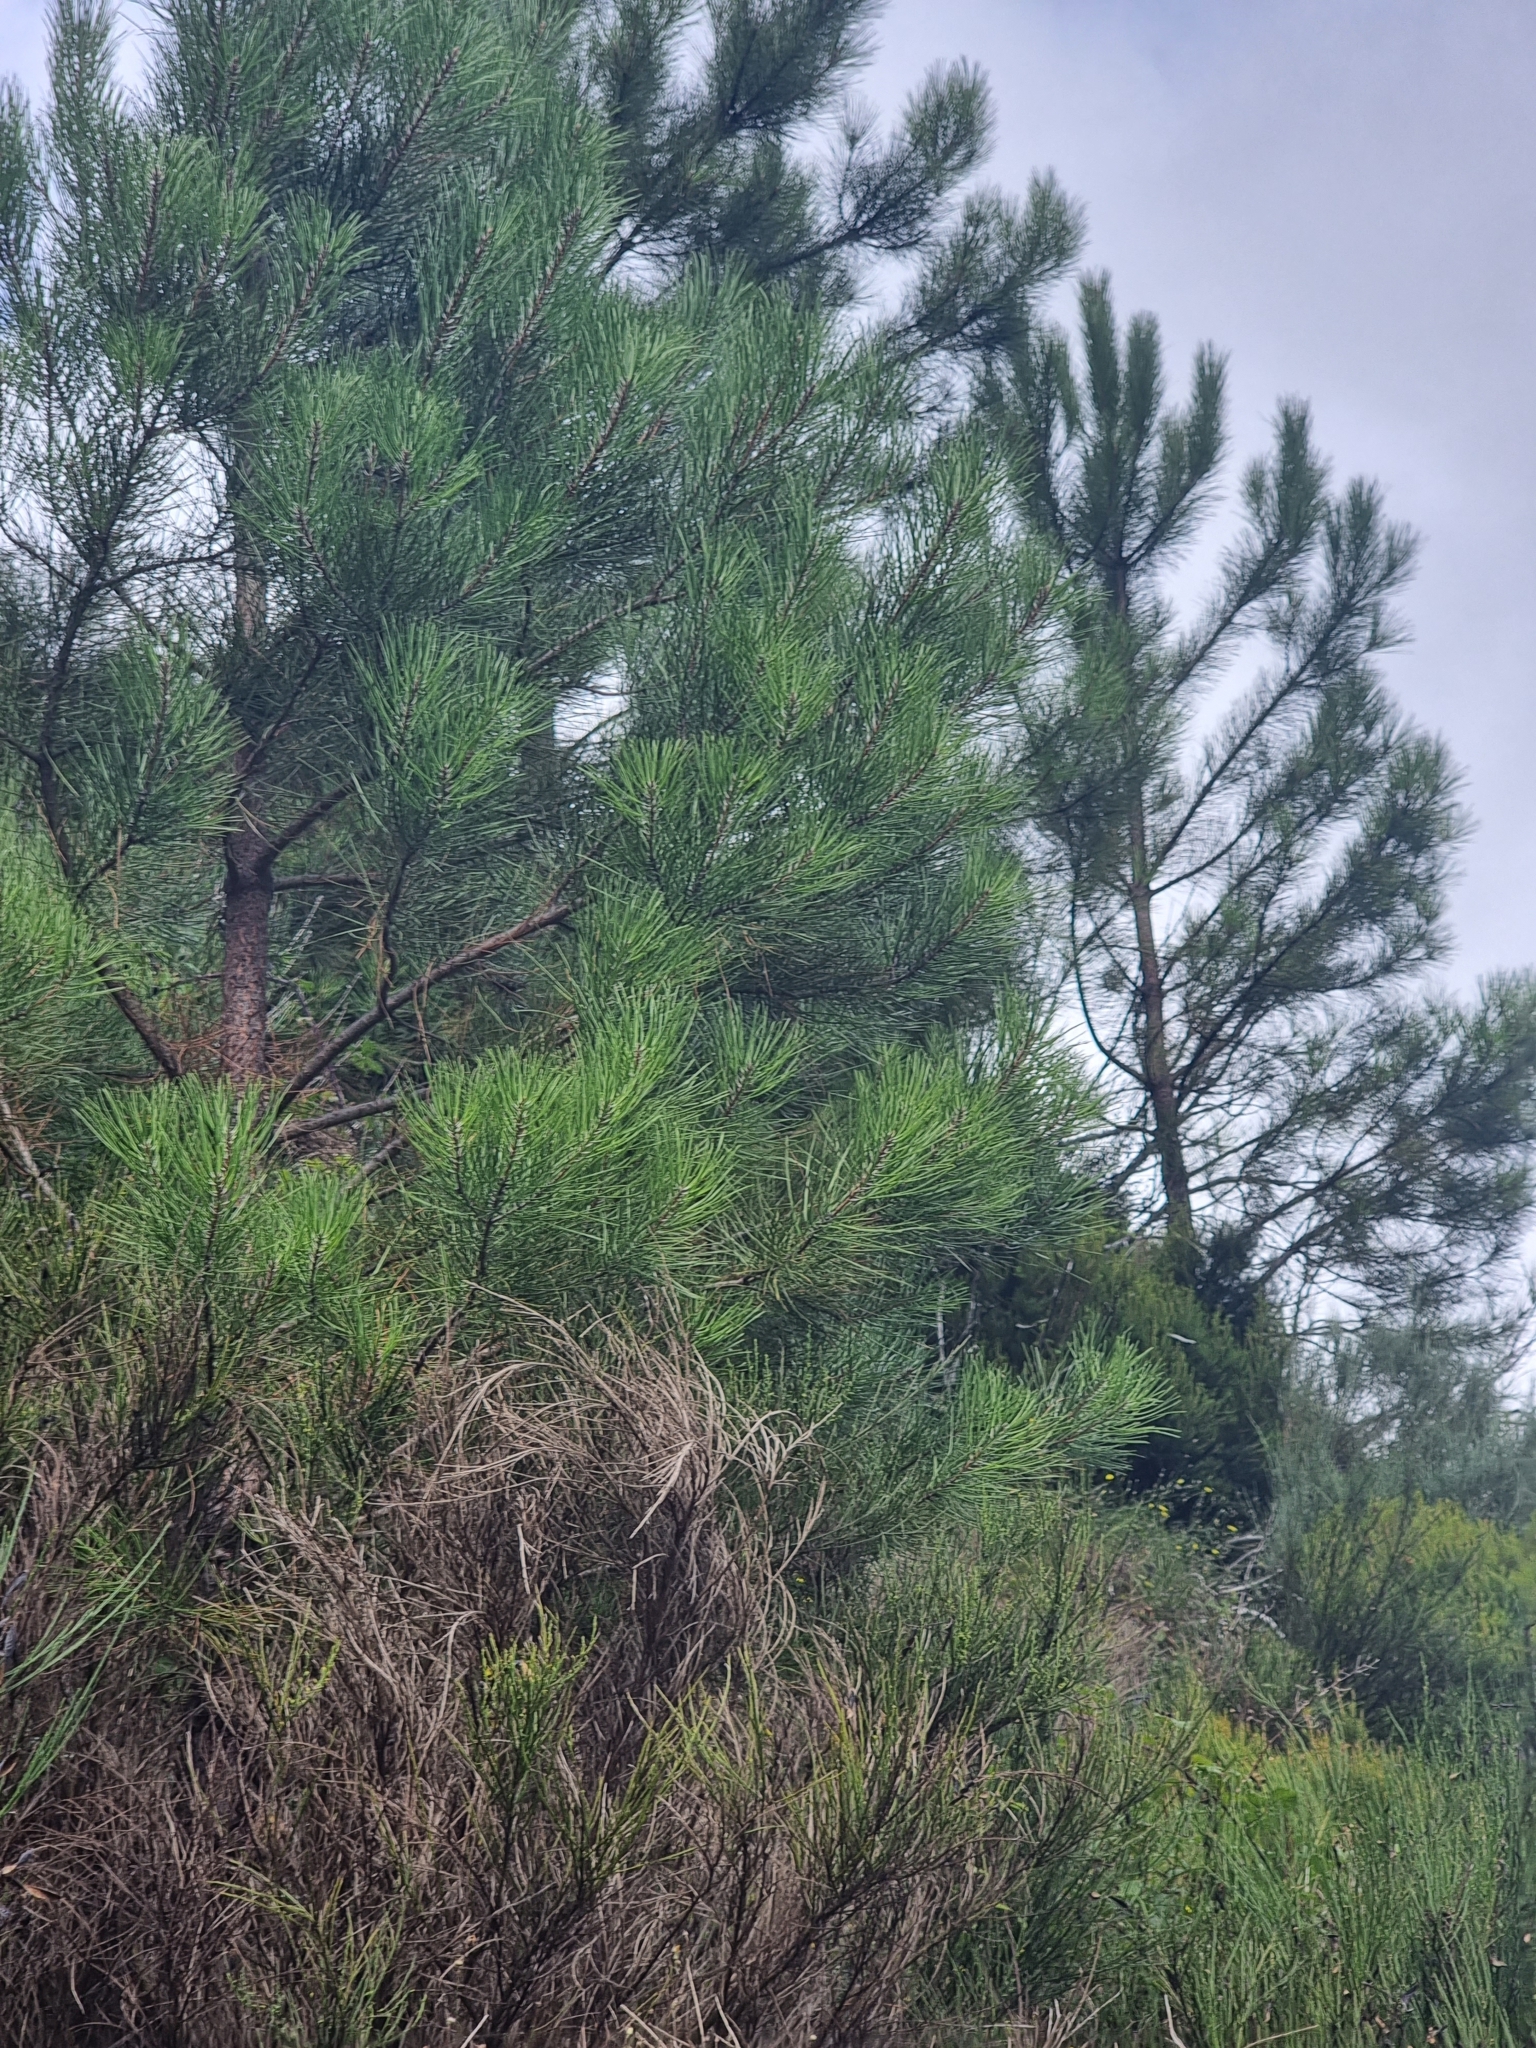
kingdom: Plantae
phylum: Tracheophyta
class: Pinopsida
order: Pinales
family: Pinaceae
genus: Pinus
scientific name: Pinus pinaster
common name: Maritime pine
